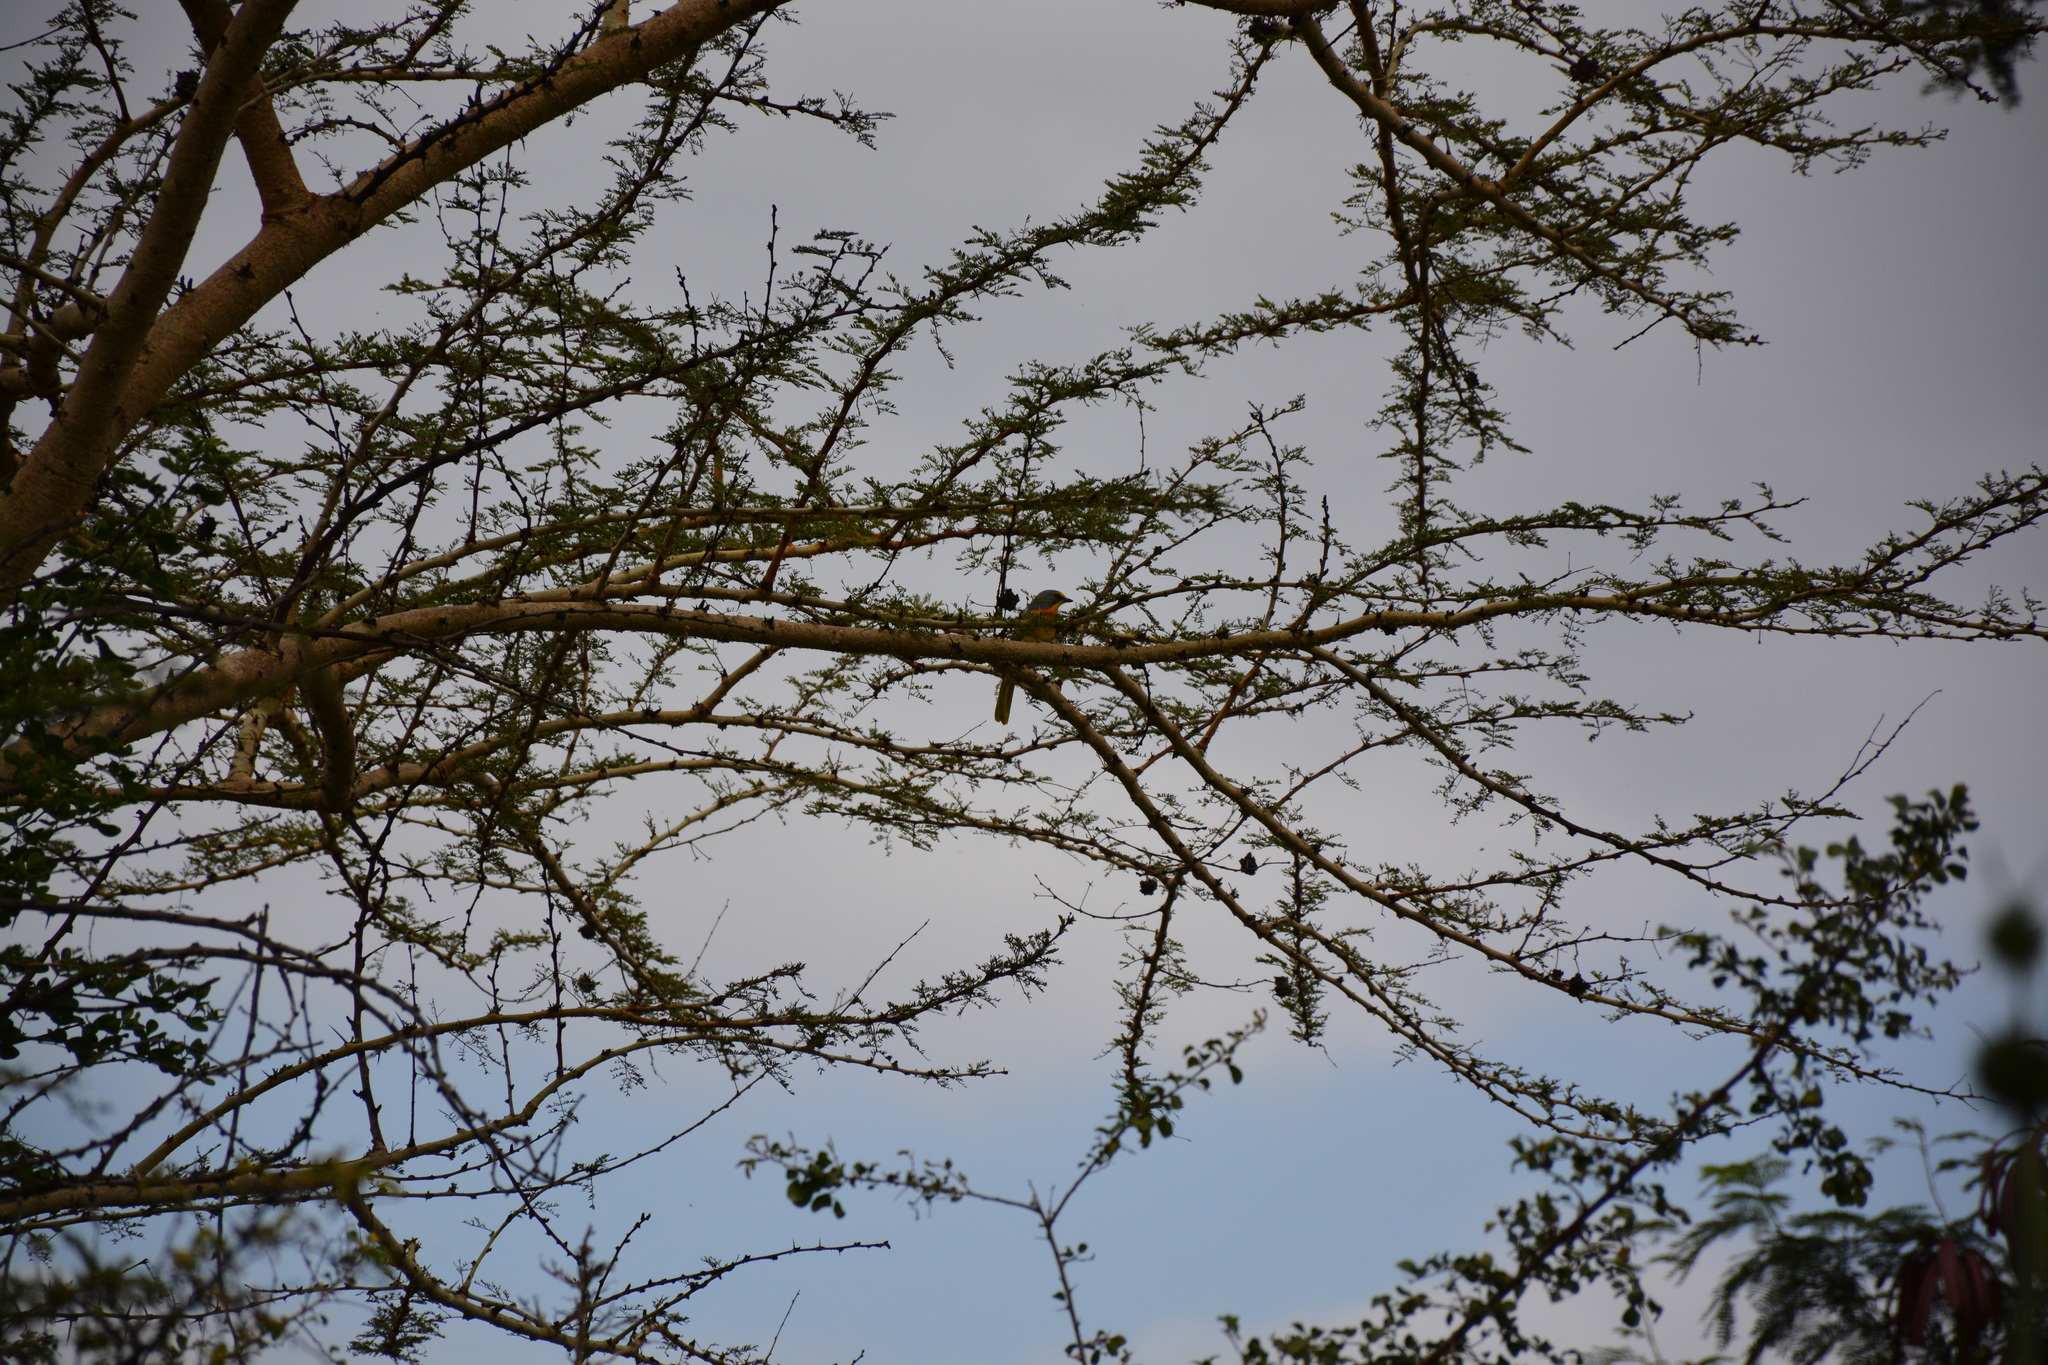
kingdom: Animalia
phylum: Chordata
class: Aves
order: Passeriformes
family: Malaconotidae
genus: Chlorophoneus
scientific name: Chlorophoneus sulfureopectus
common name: Orange-breasted bushshrike
